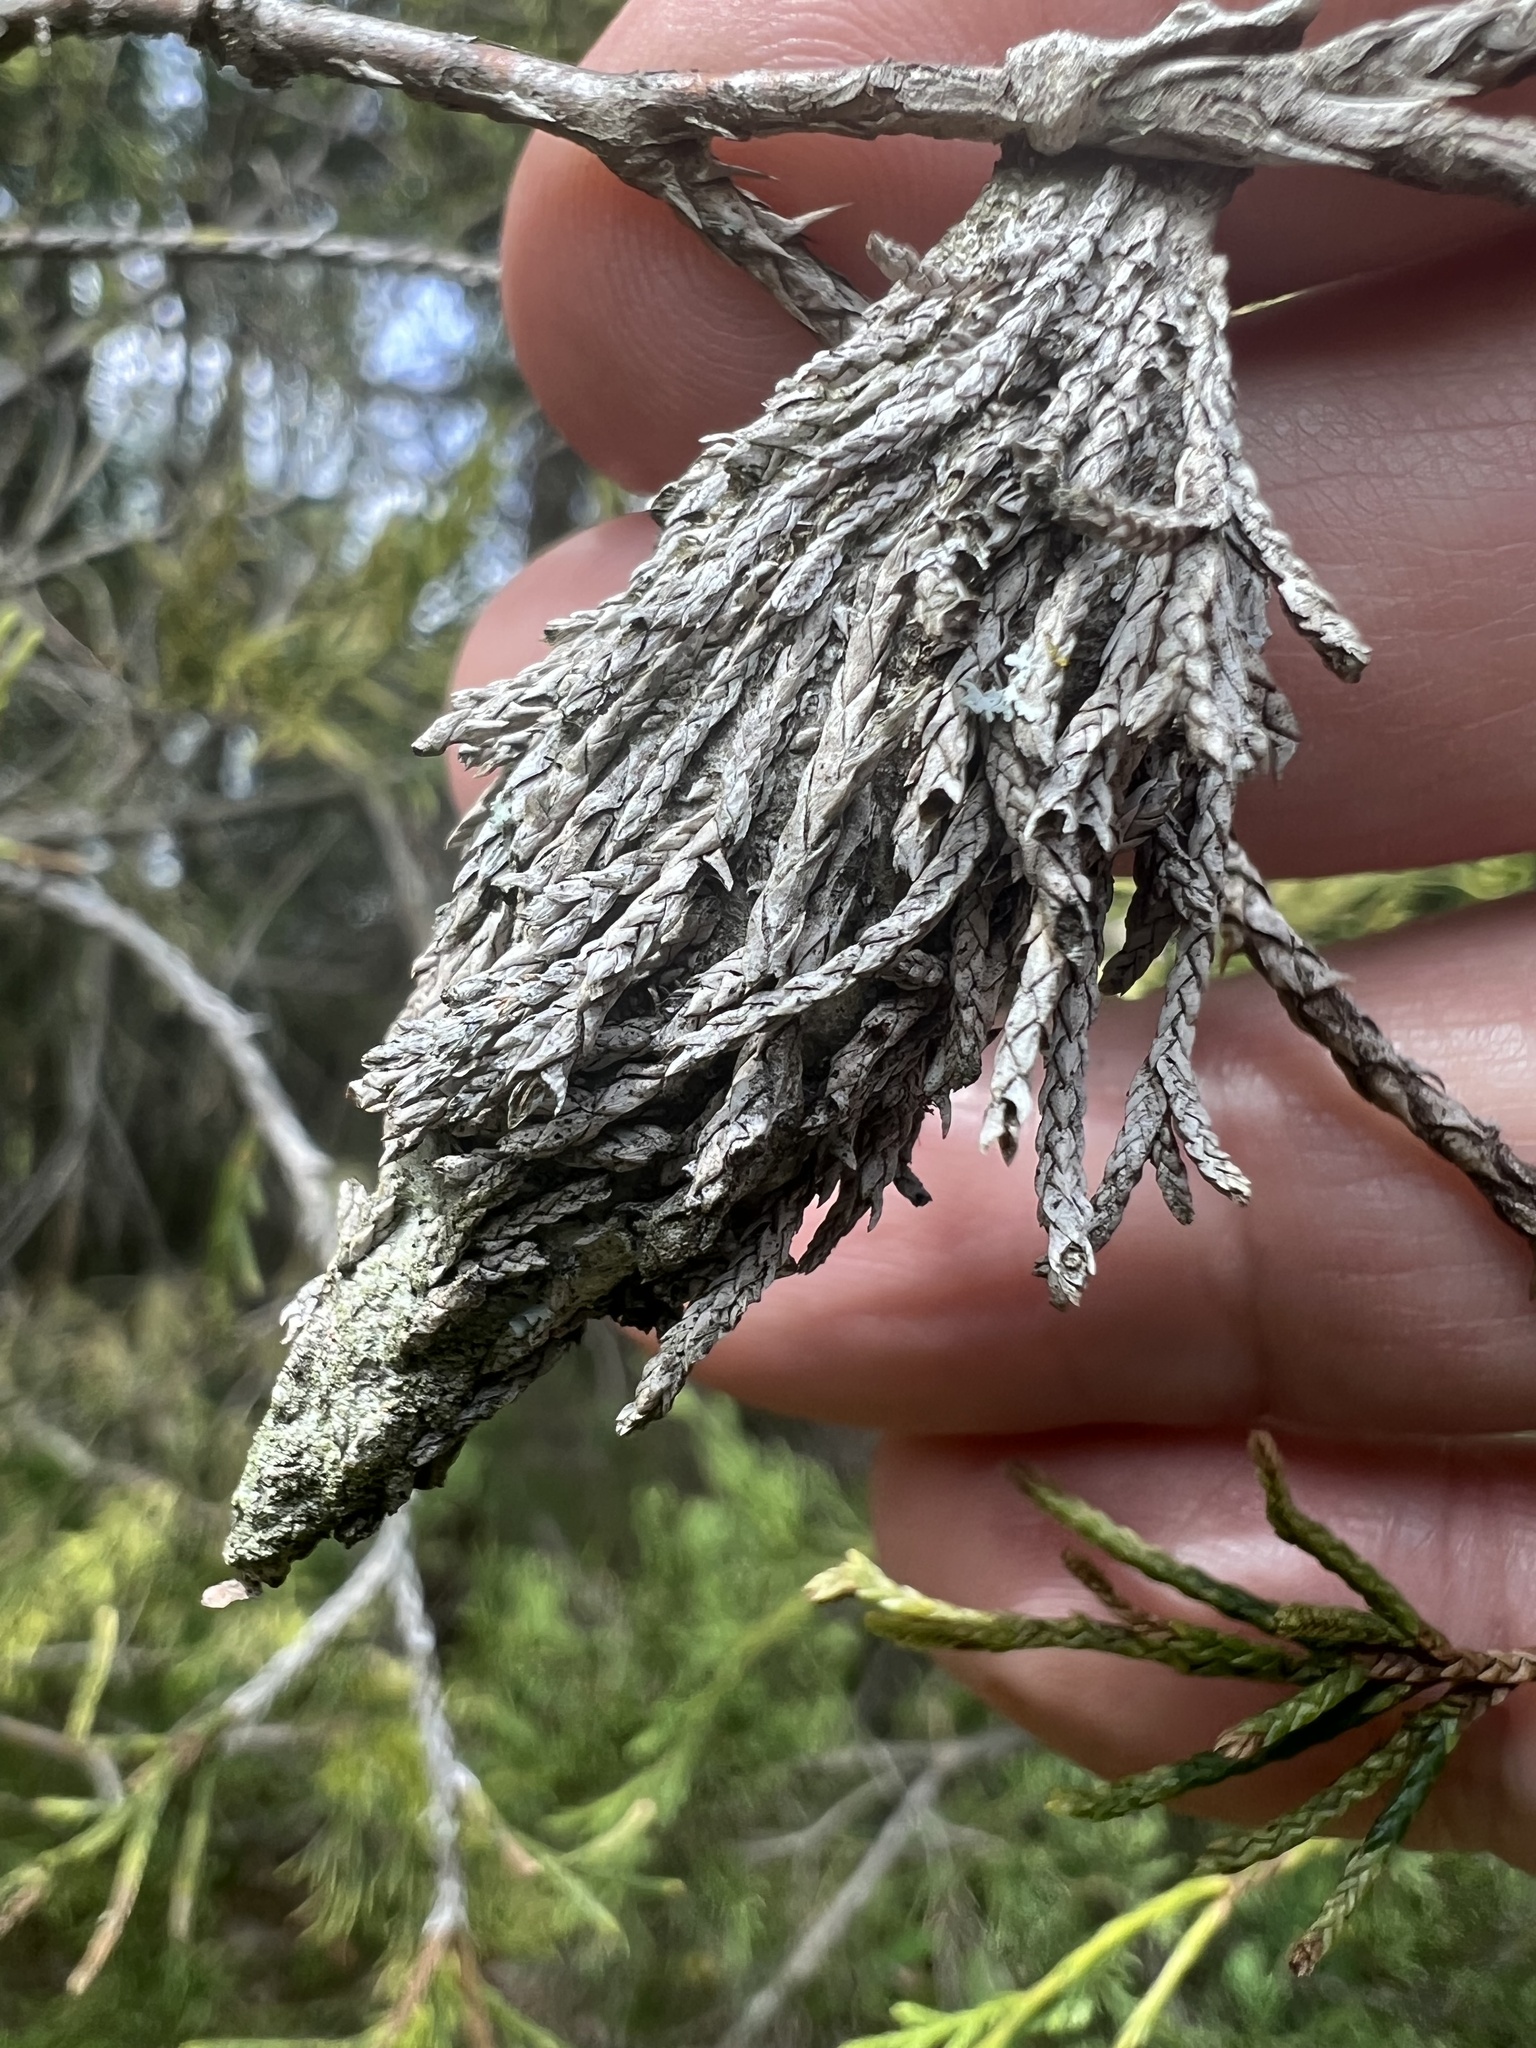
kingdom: Animalia
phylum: Arthropoda
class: Insecta
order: Lepidoptera
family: Psychidae
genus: Thyridopteryx
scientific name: Thyridopteryx ephemeraeformis
